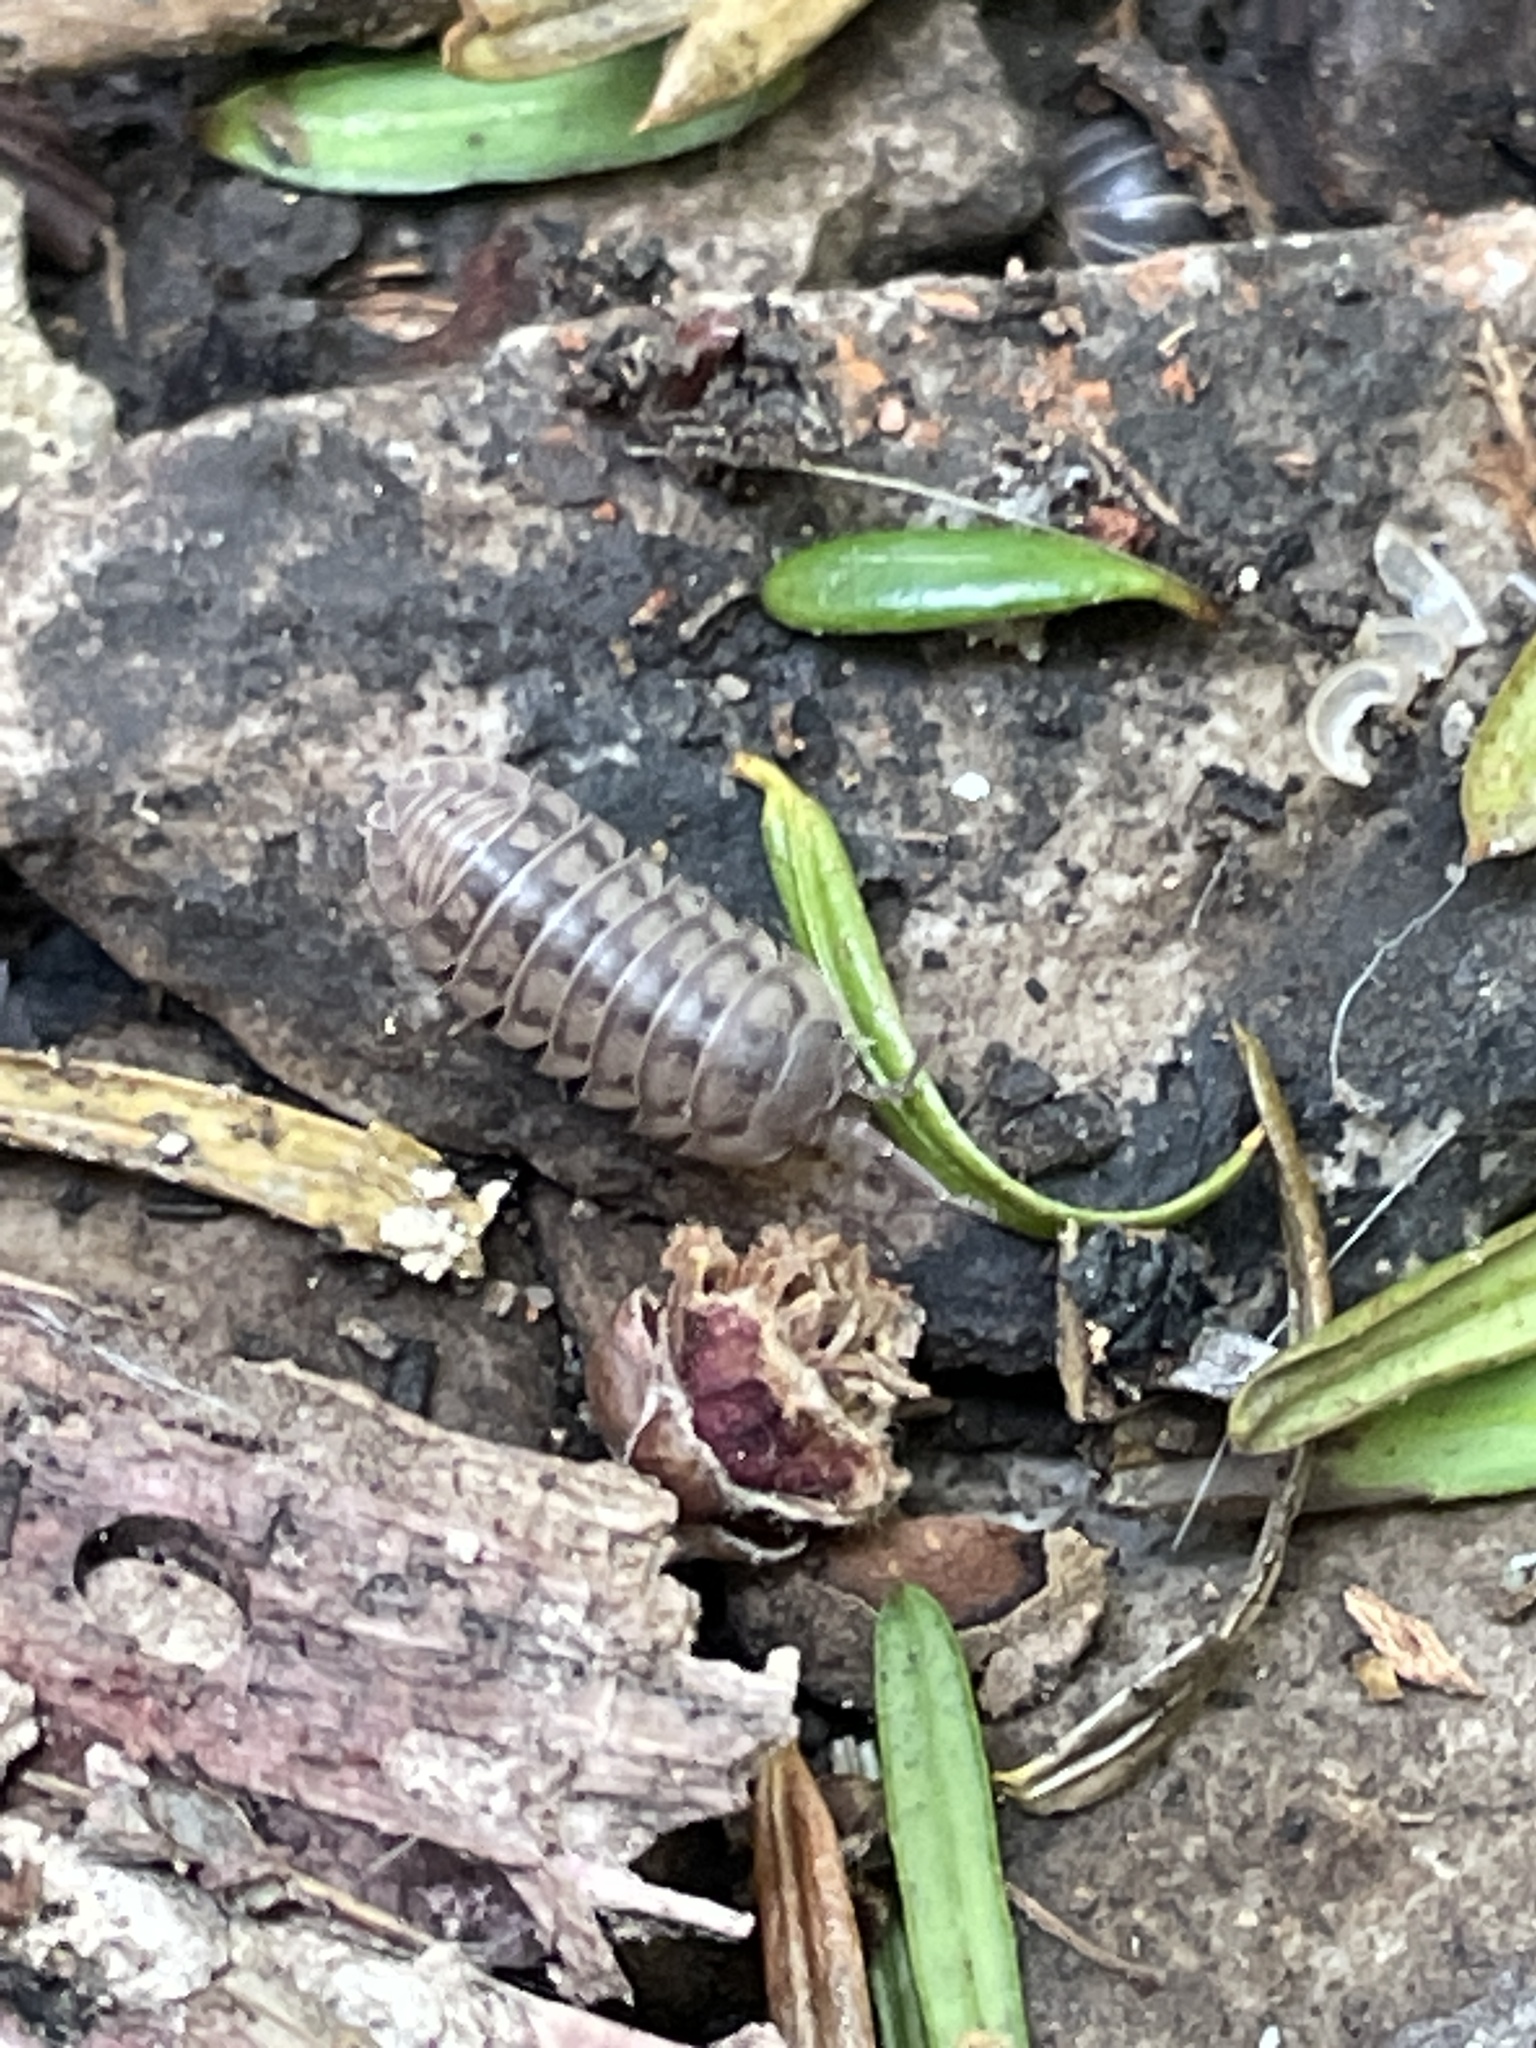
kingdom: Animalia
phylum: Arthropoda
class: Malacostraca
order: Isopoda
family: Armadillidiidae
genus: Armadillidium
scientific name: Armadillidium nasatum
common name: Isopod
